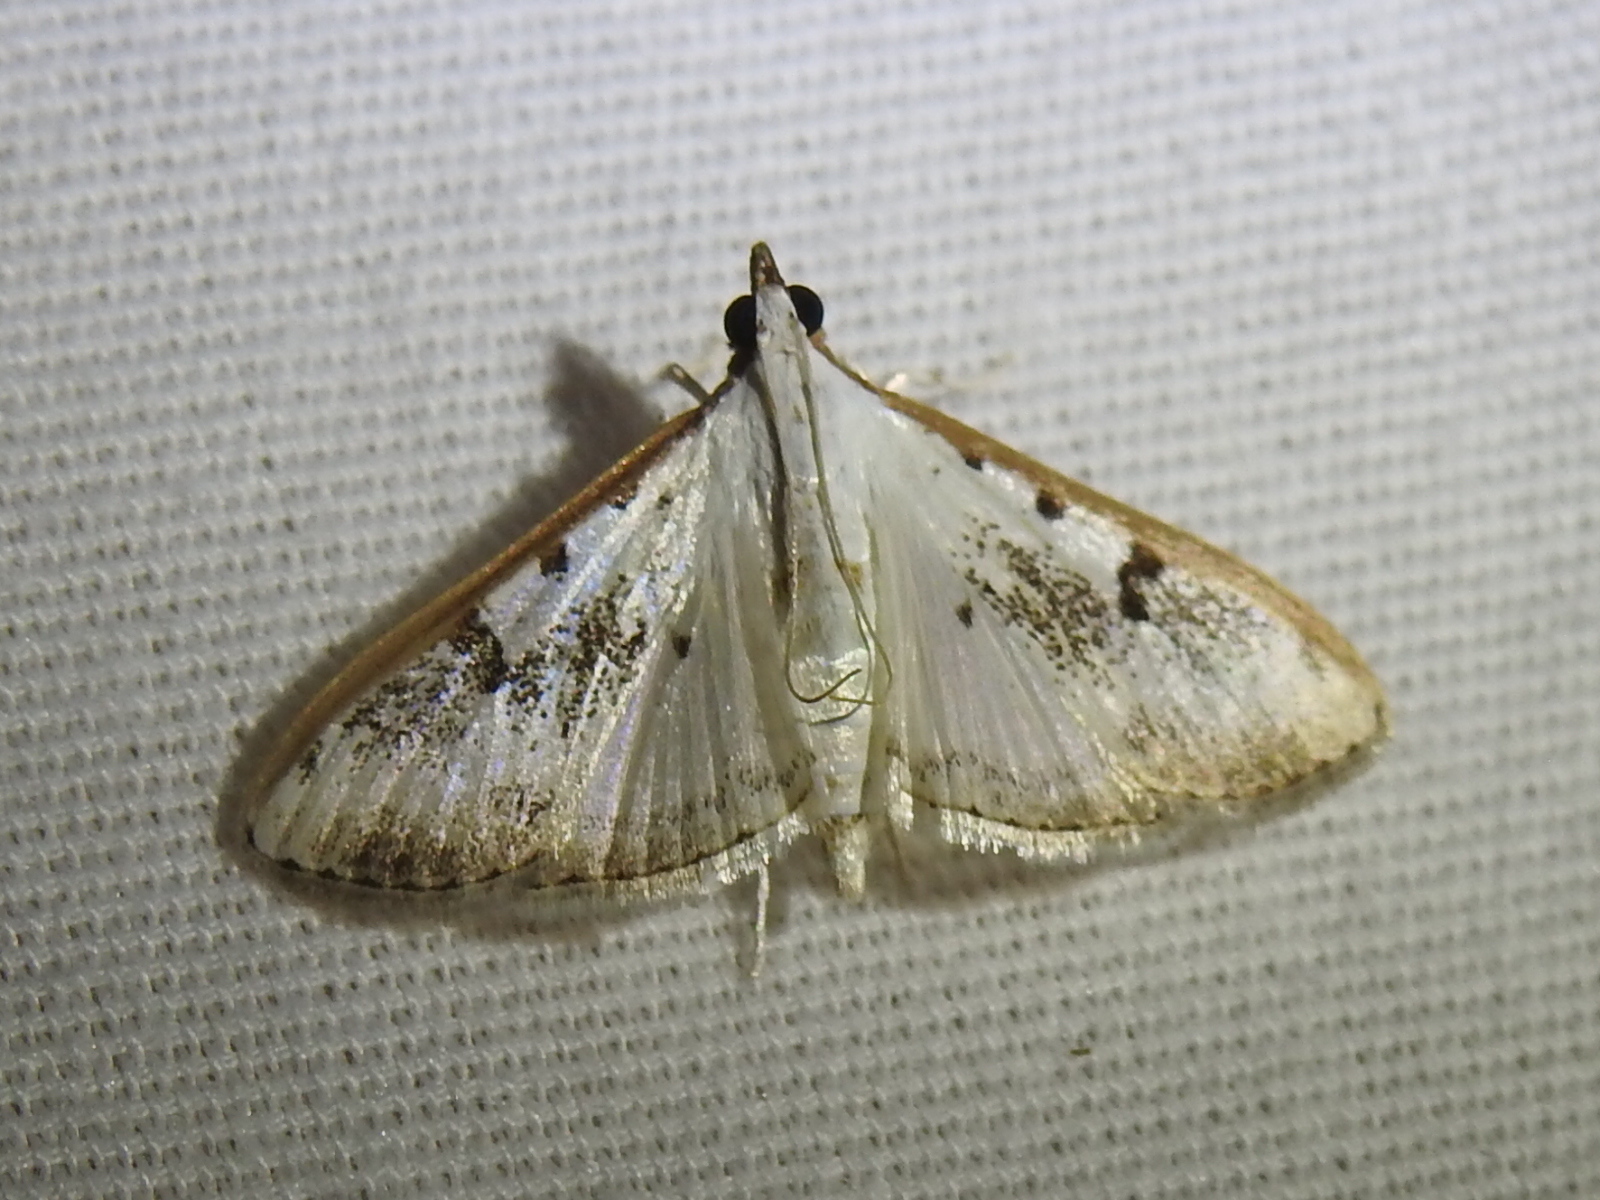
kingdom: Animalia
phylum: Arthropoda
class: Insecta
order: Lepidoptera
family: Crambidae
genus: Palpita
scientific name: Palpita gracilalis
